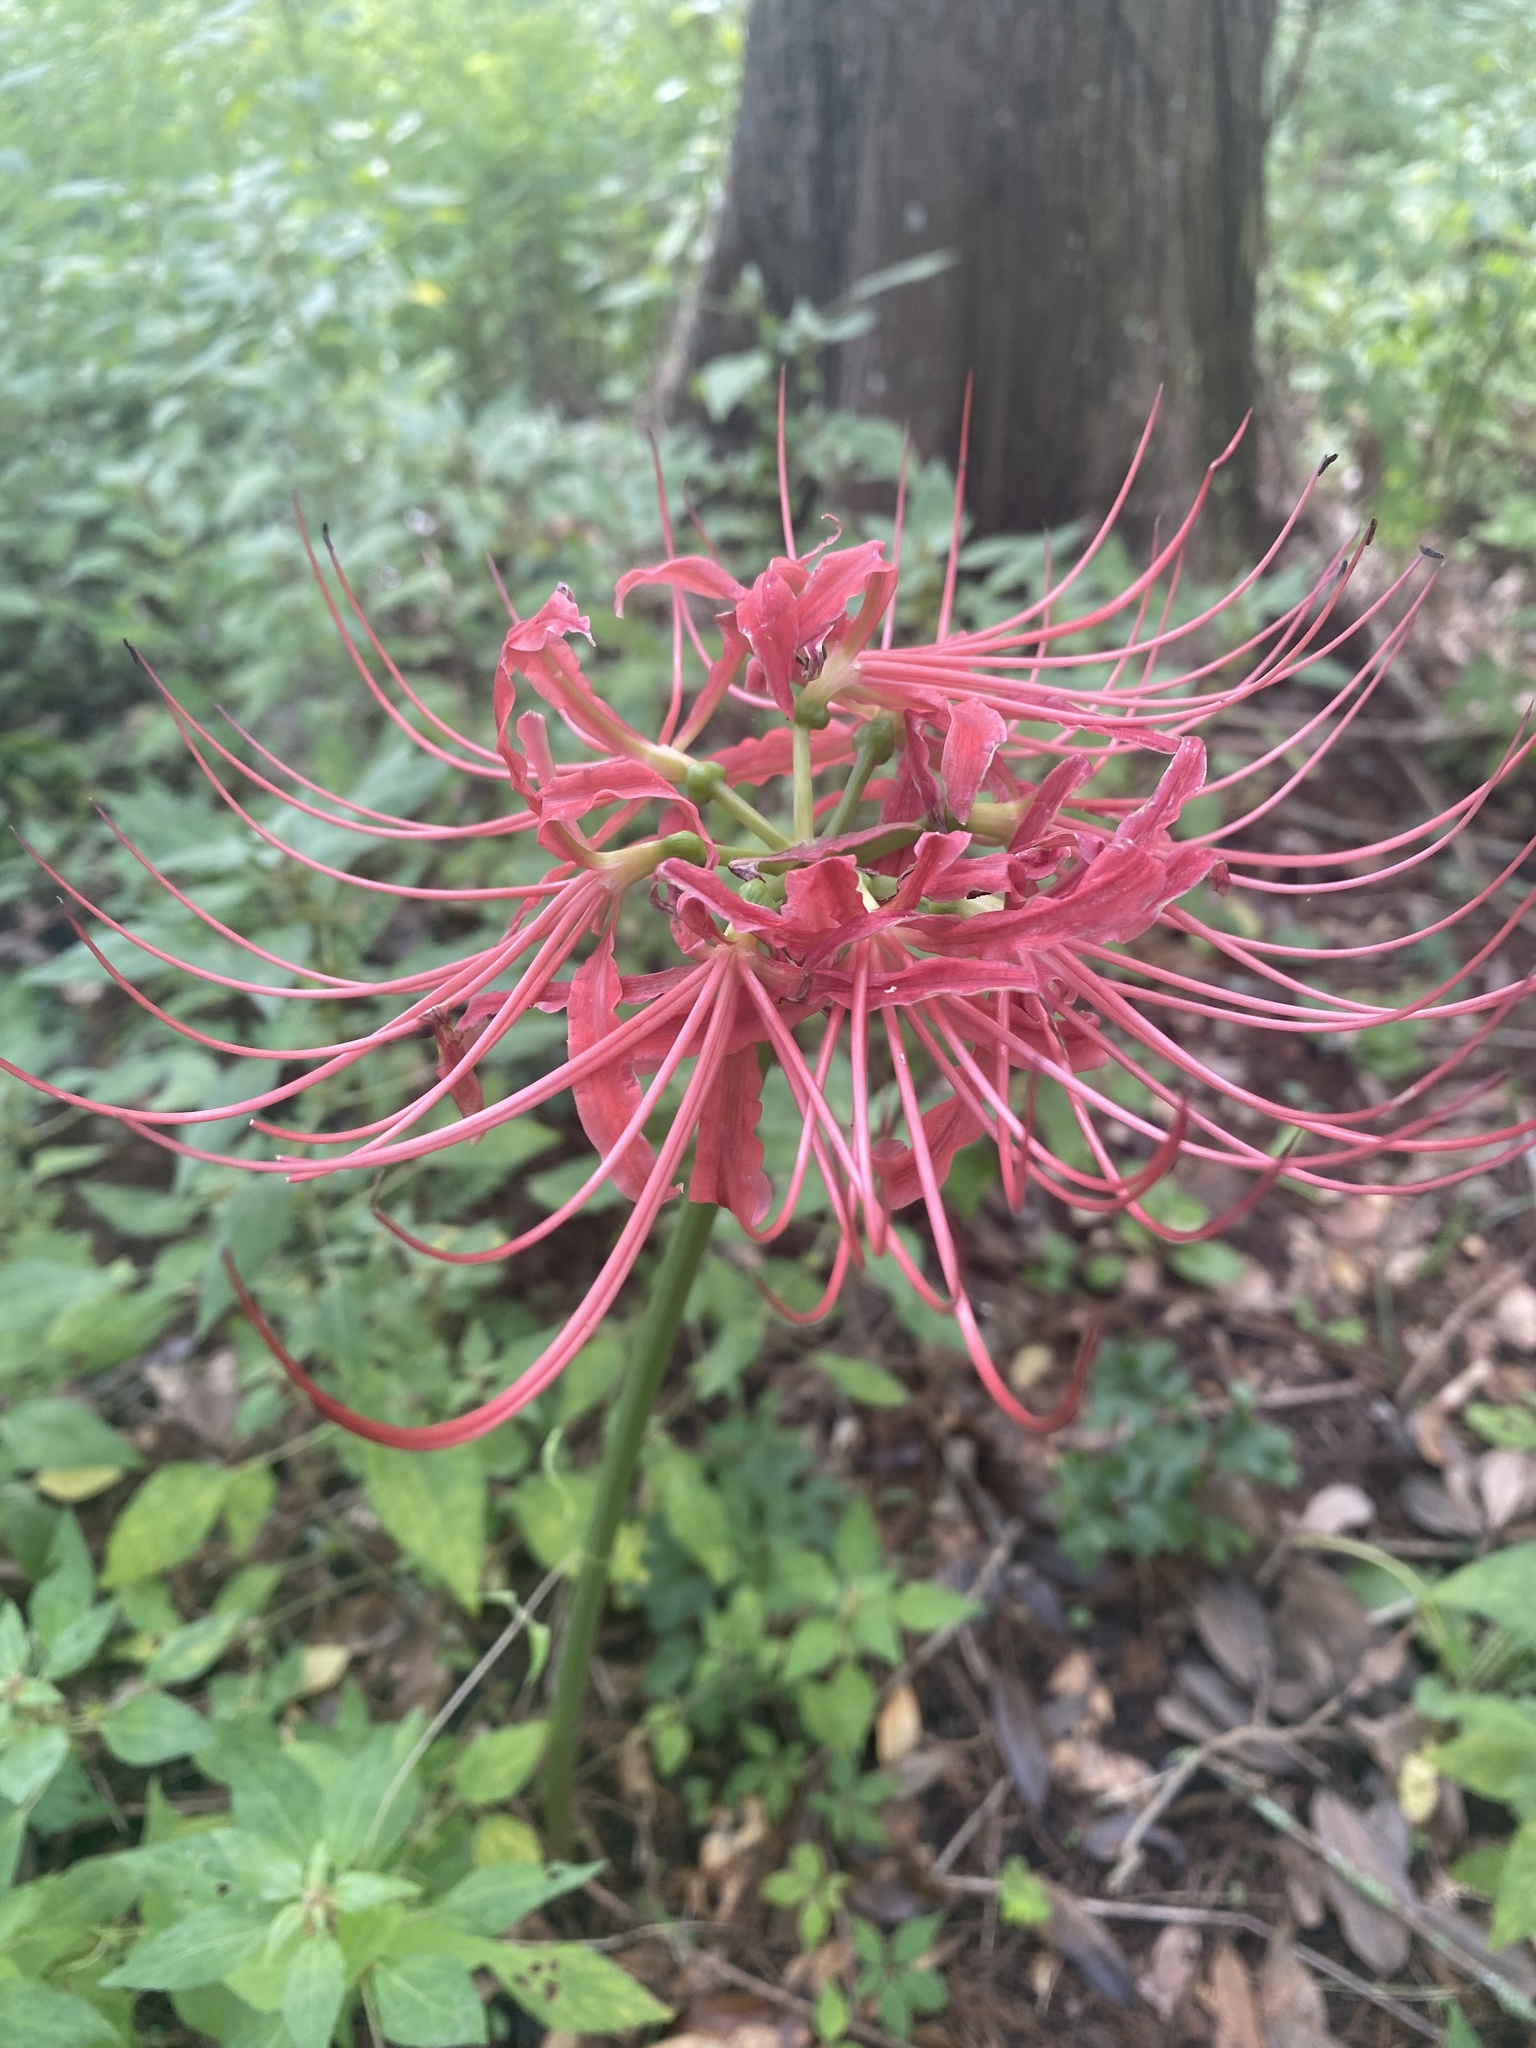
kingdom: Plantae
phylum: Tracheophyta
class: Liliopsida
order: Asparagales
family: Amaryllidaceae
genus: Lycoris
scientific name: Lycoris radiata
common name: Red spider lily
